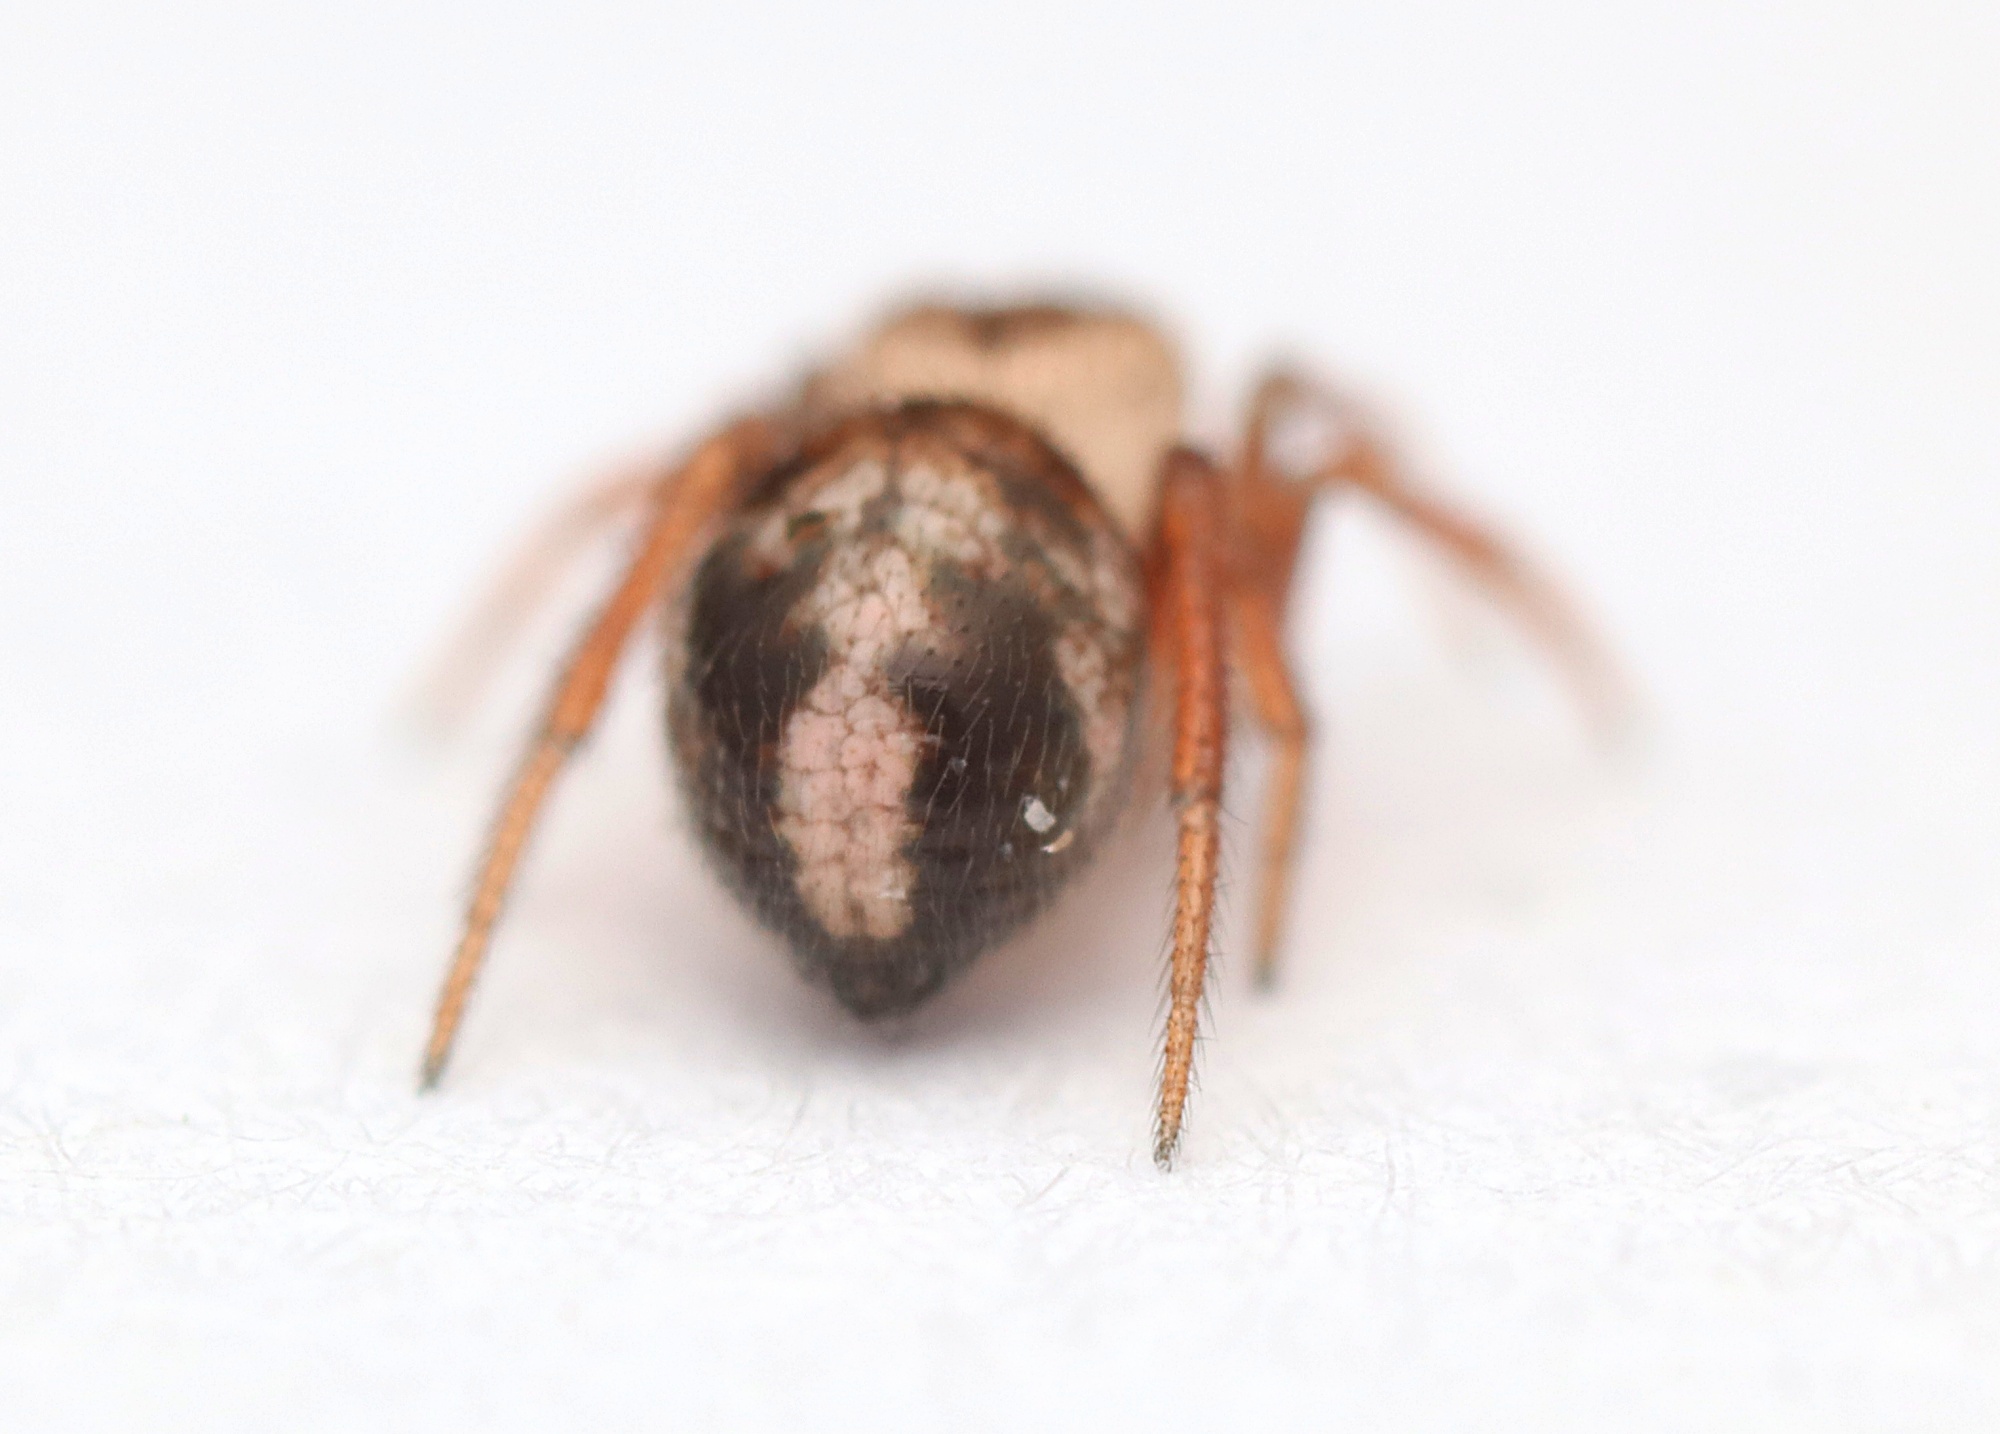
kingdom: Animalia
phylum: Arthropoda
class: Arachnida
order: Araneae
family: Theridiidae
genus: Phycosoma
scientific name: Phycosoma oecobioides
